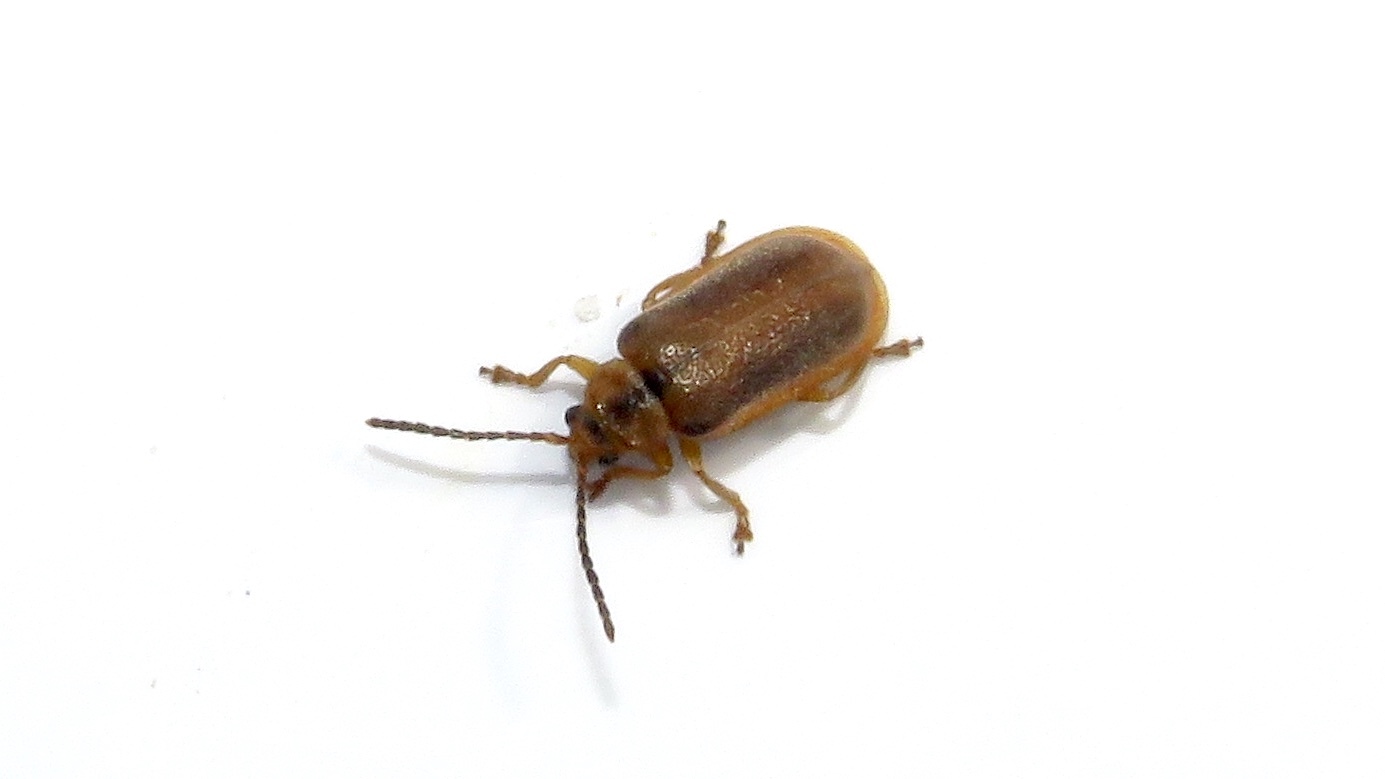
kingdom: Animalia
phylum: Arthropoda
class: Insecta
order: Coleoptera
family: Chrysomelidae
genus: Neogalerucella
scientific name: Neogalerucella calmariensis
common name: Black-margined loosestrife beetle
